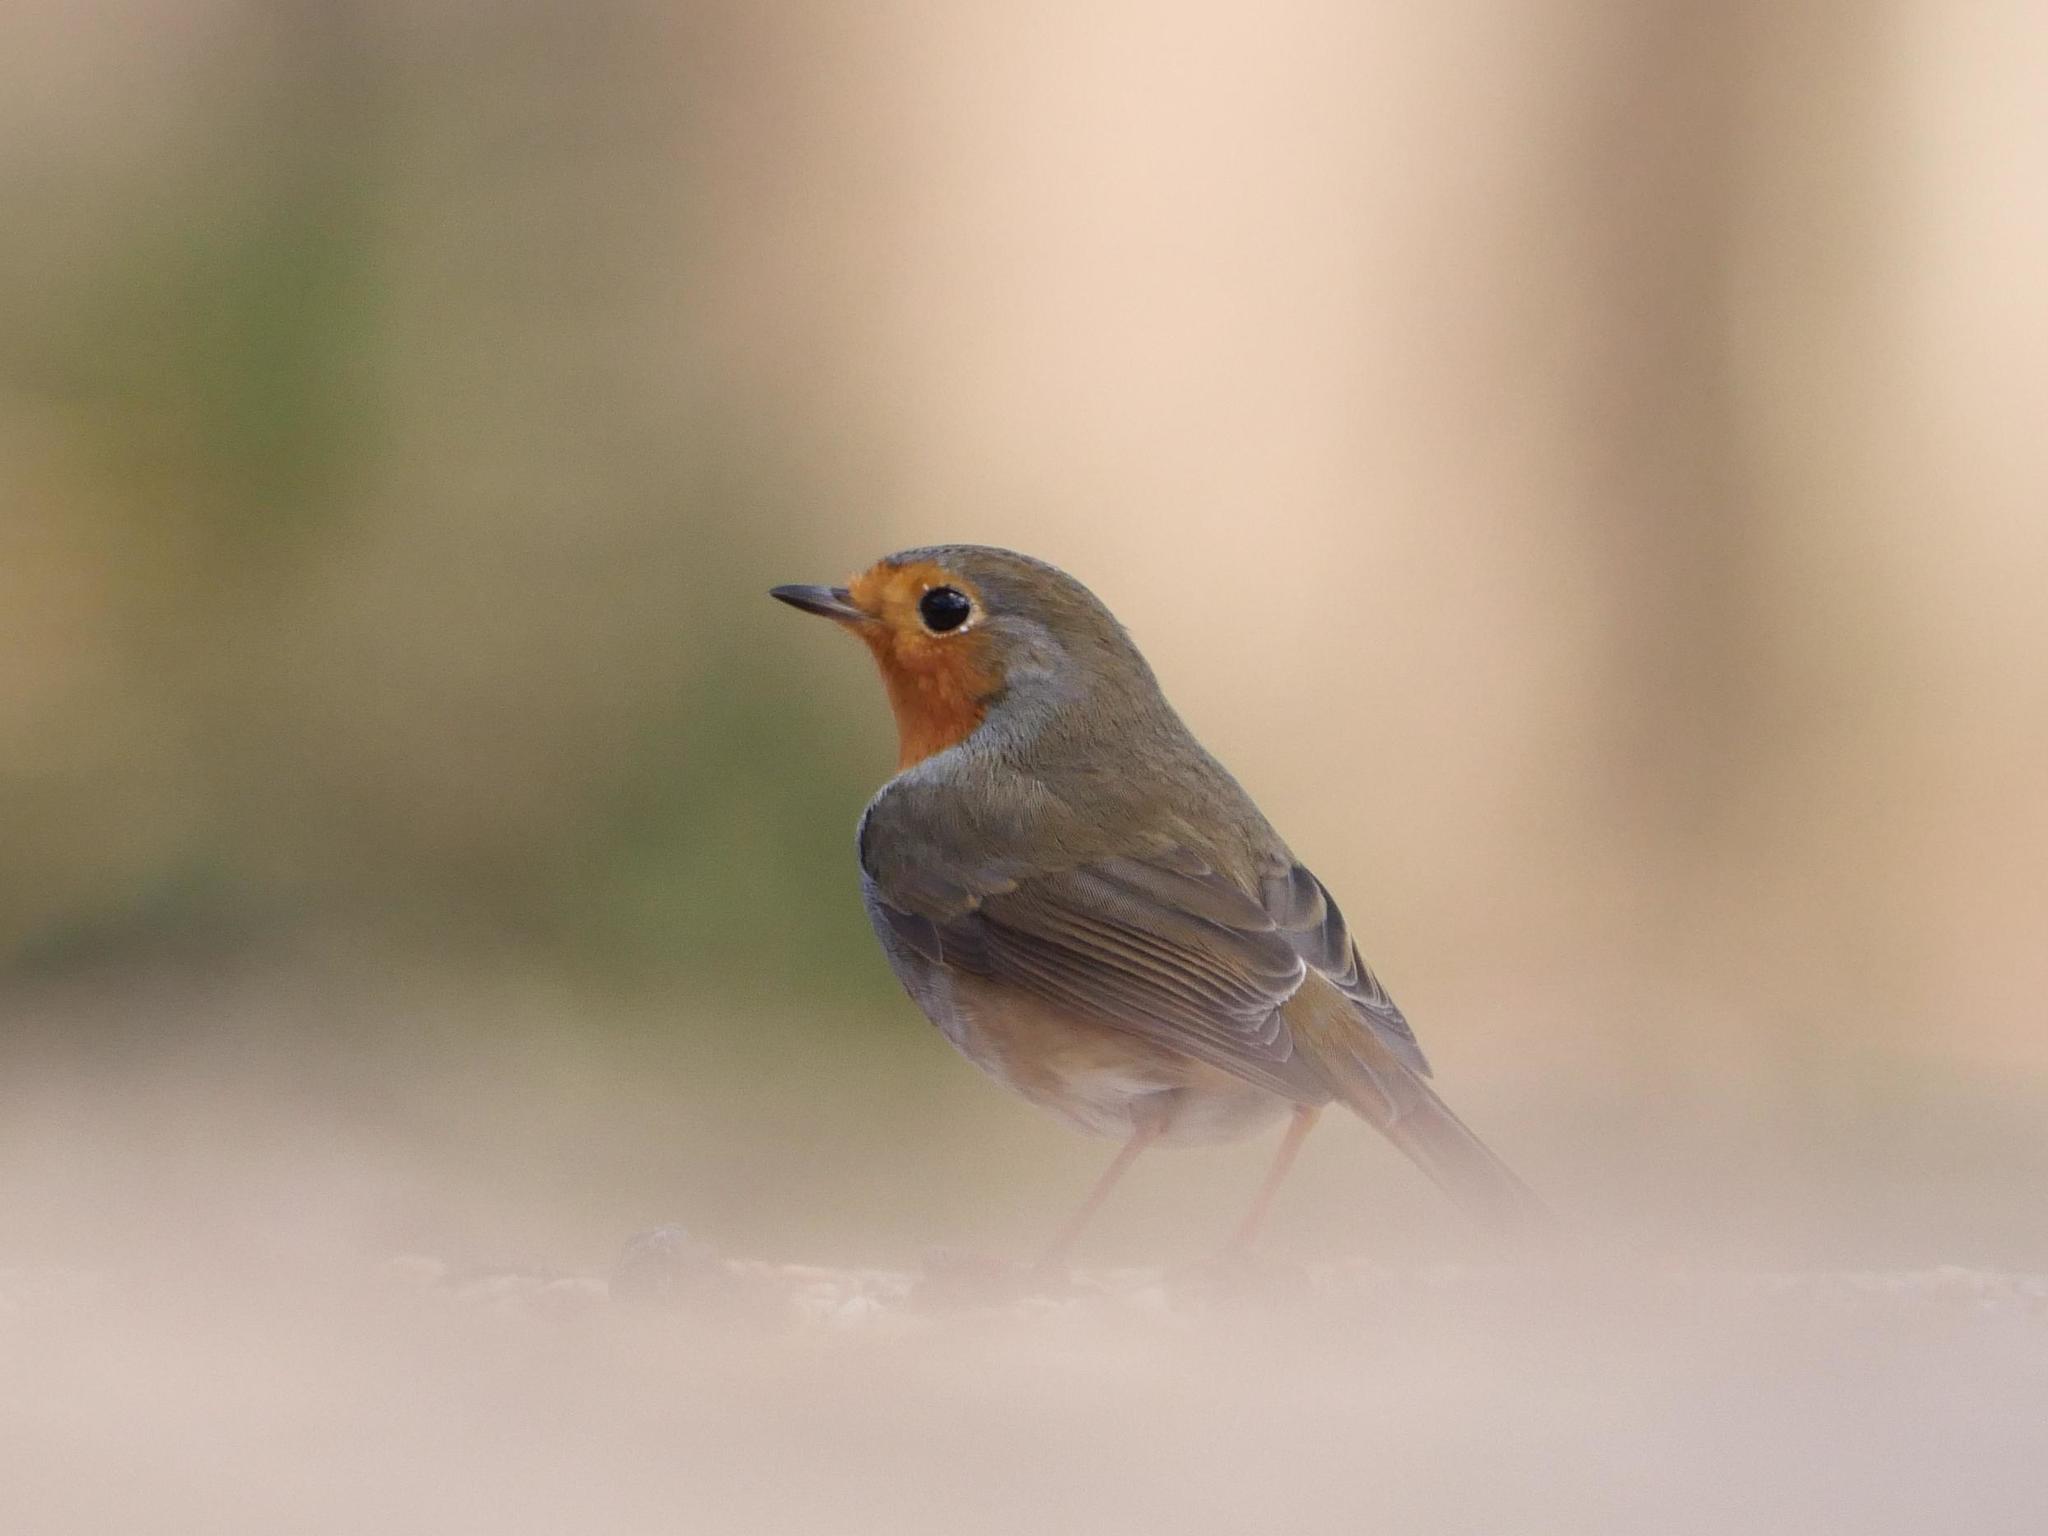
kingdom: Animalia
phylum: Chordata
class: Aves
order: Passeriformes
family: Muscicapidae
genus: Erithacus
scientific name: Erithacus rubecula
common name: European robin
